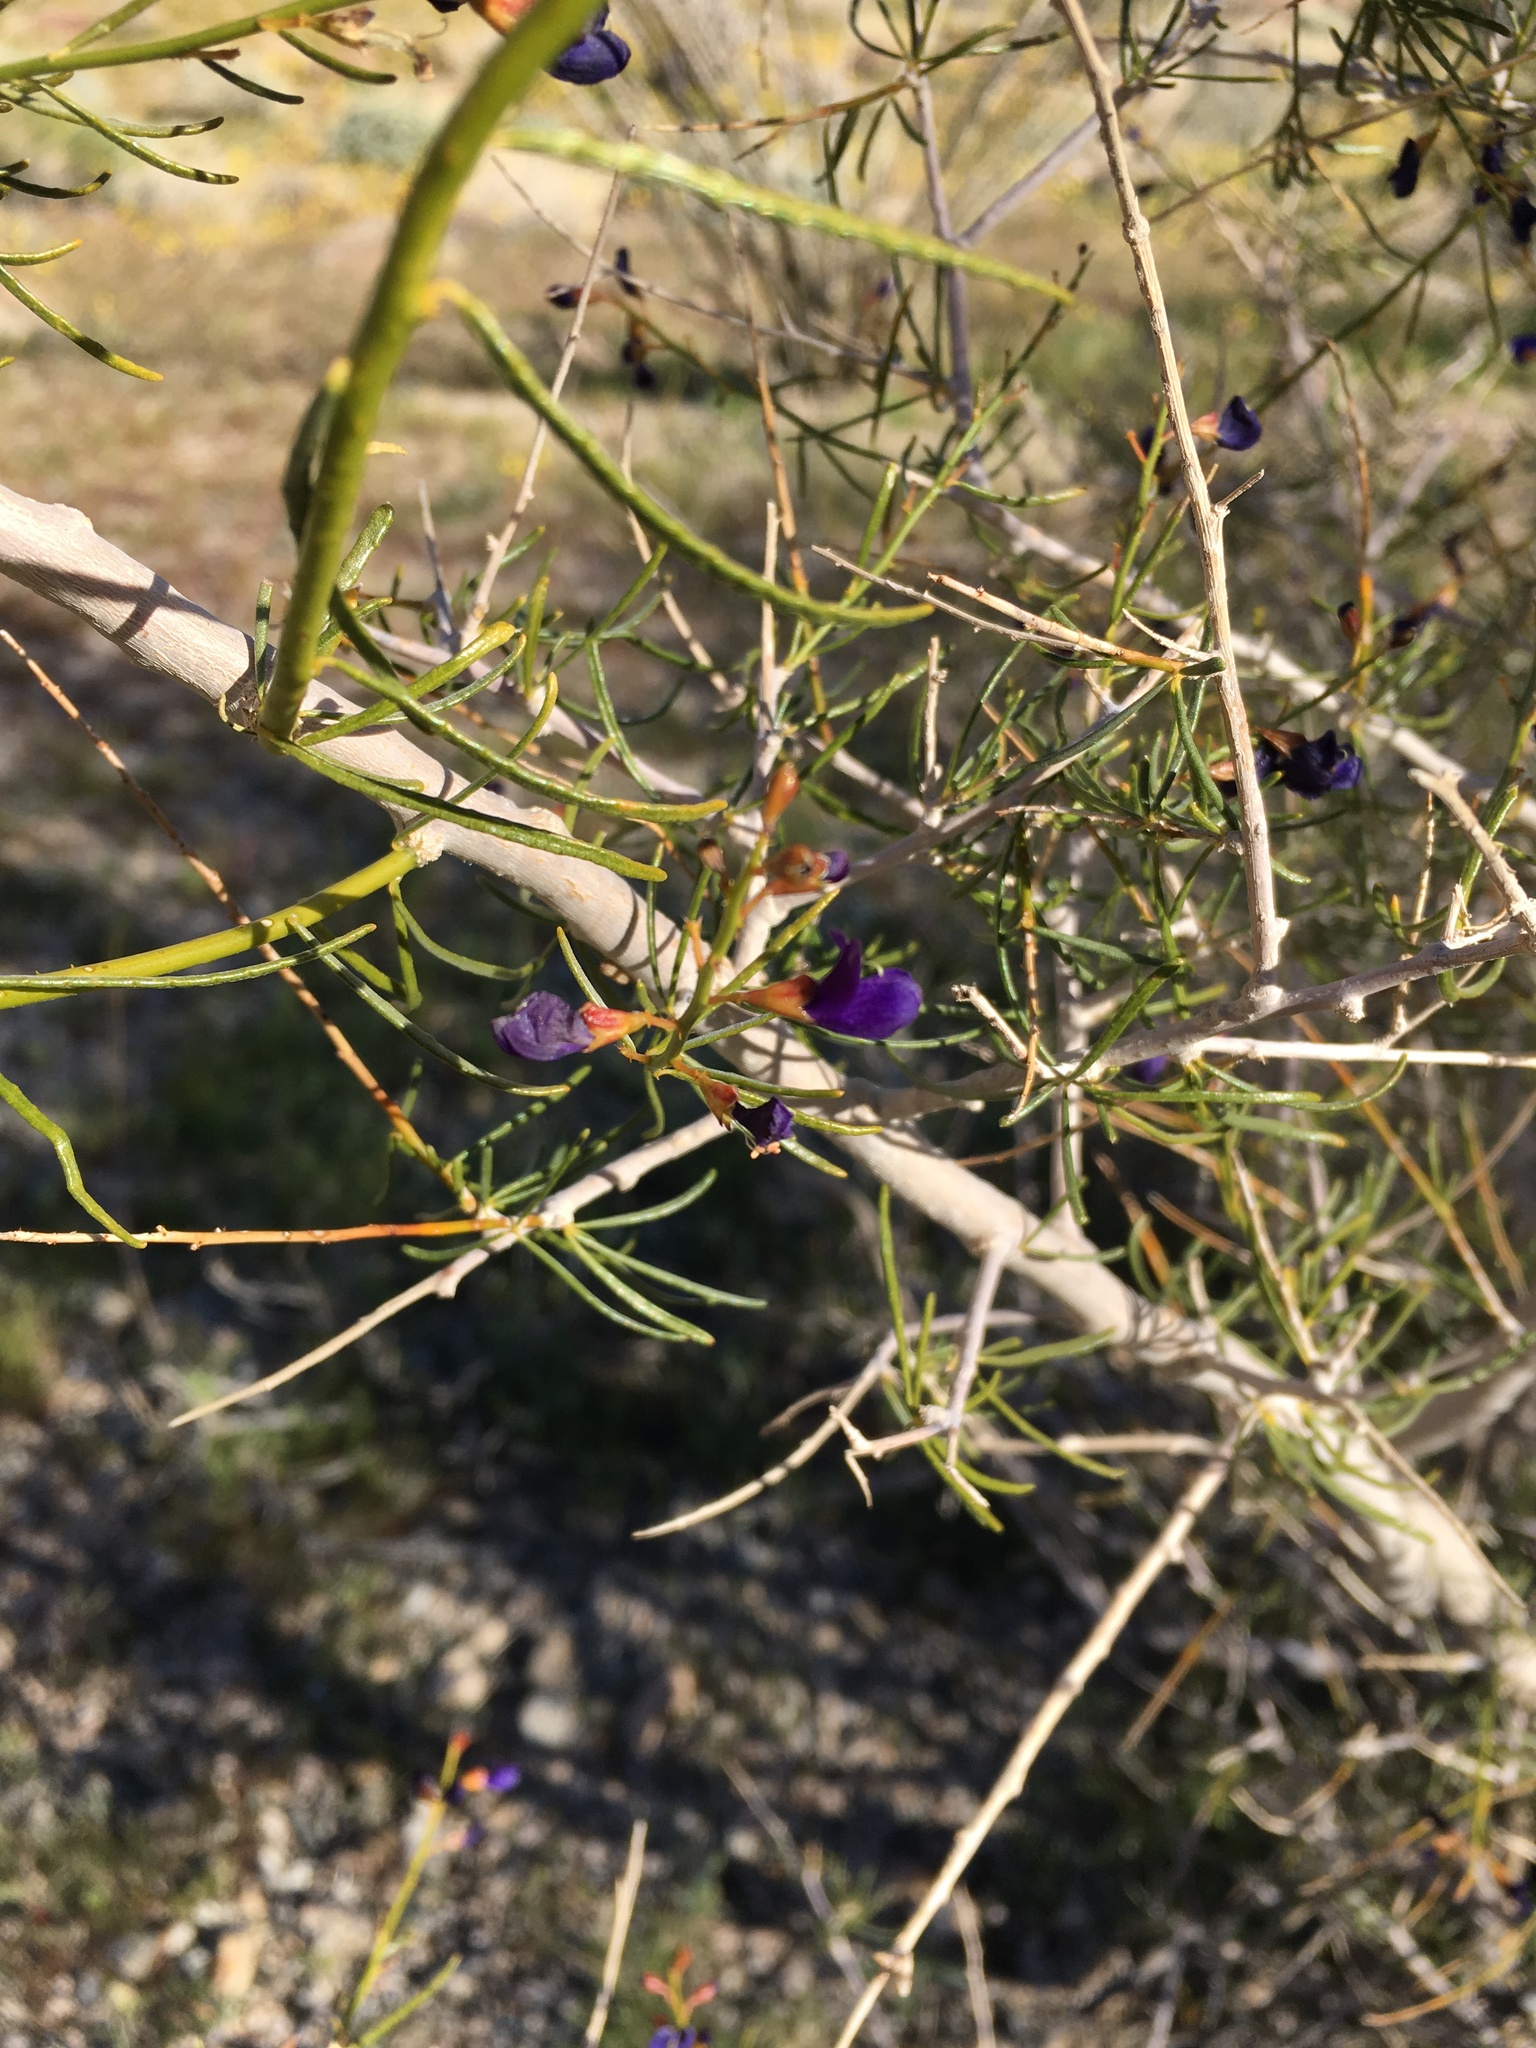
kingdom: Plantae
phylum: Tracheophyta
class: Magnoliopsida
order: Fabales
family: Fabaceae
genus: Psorothamnus
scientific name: Psorothamnus schottii
